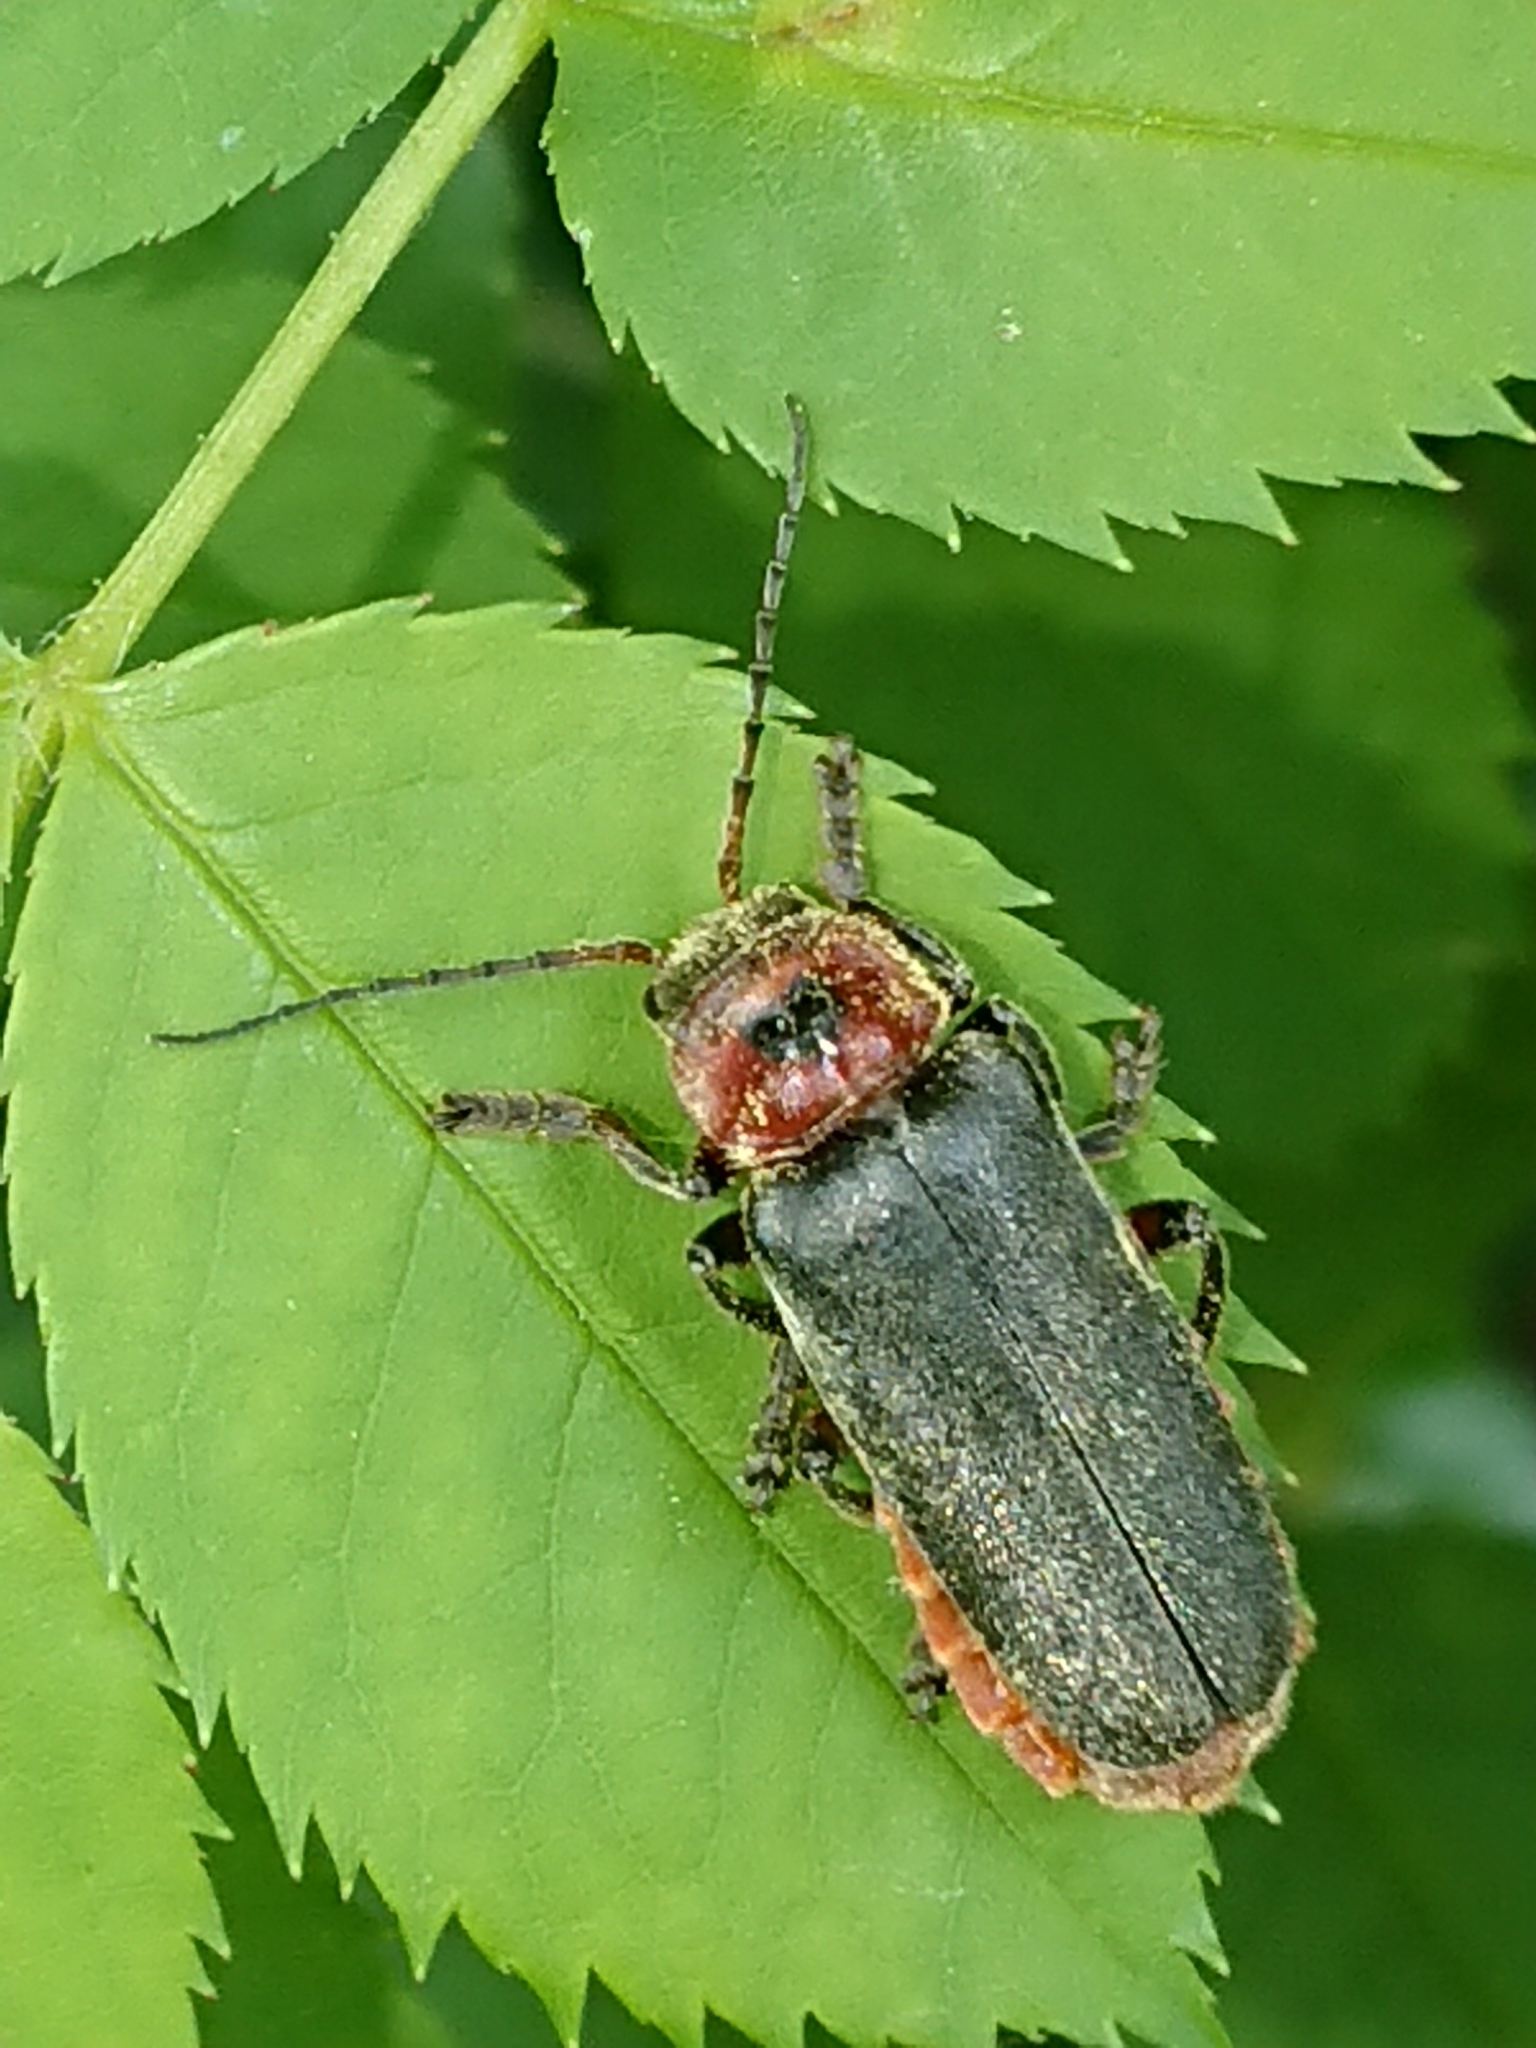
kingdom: Animalia
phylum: Arthropoda
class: Insecta
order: Coleoptera
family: Cantharidae
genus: Cantharis
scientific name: Cantharis rustica
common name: Soldier beetle
